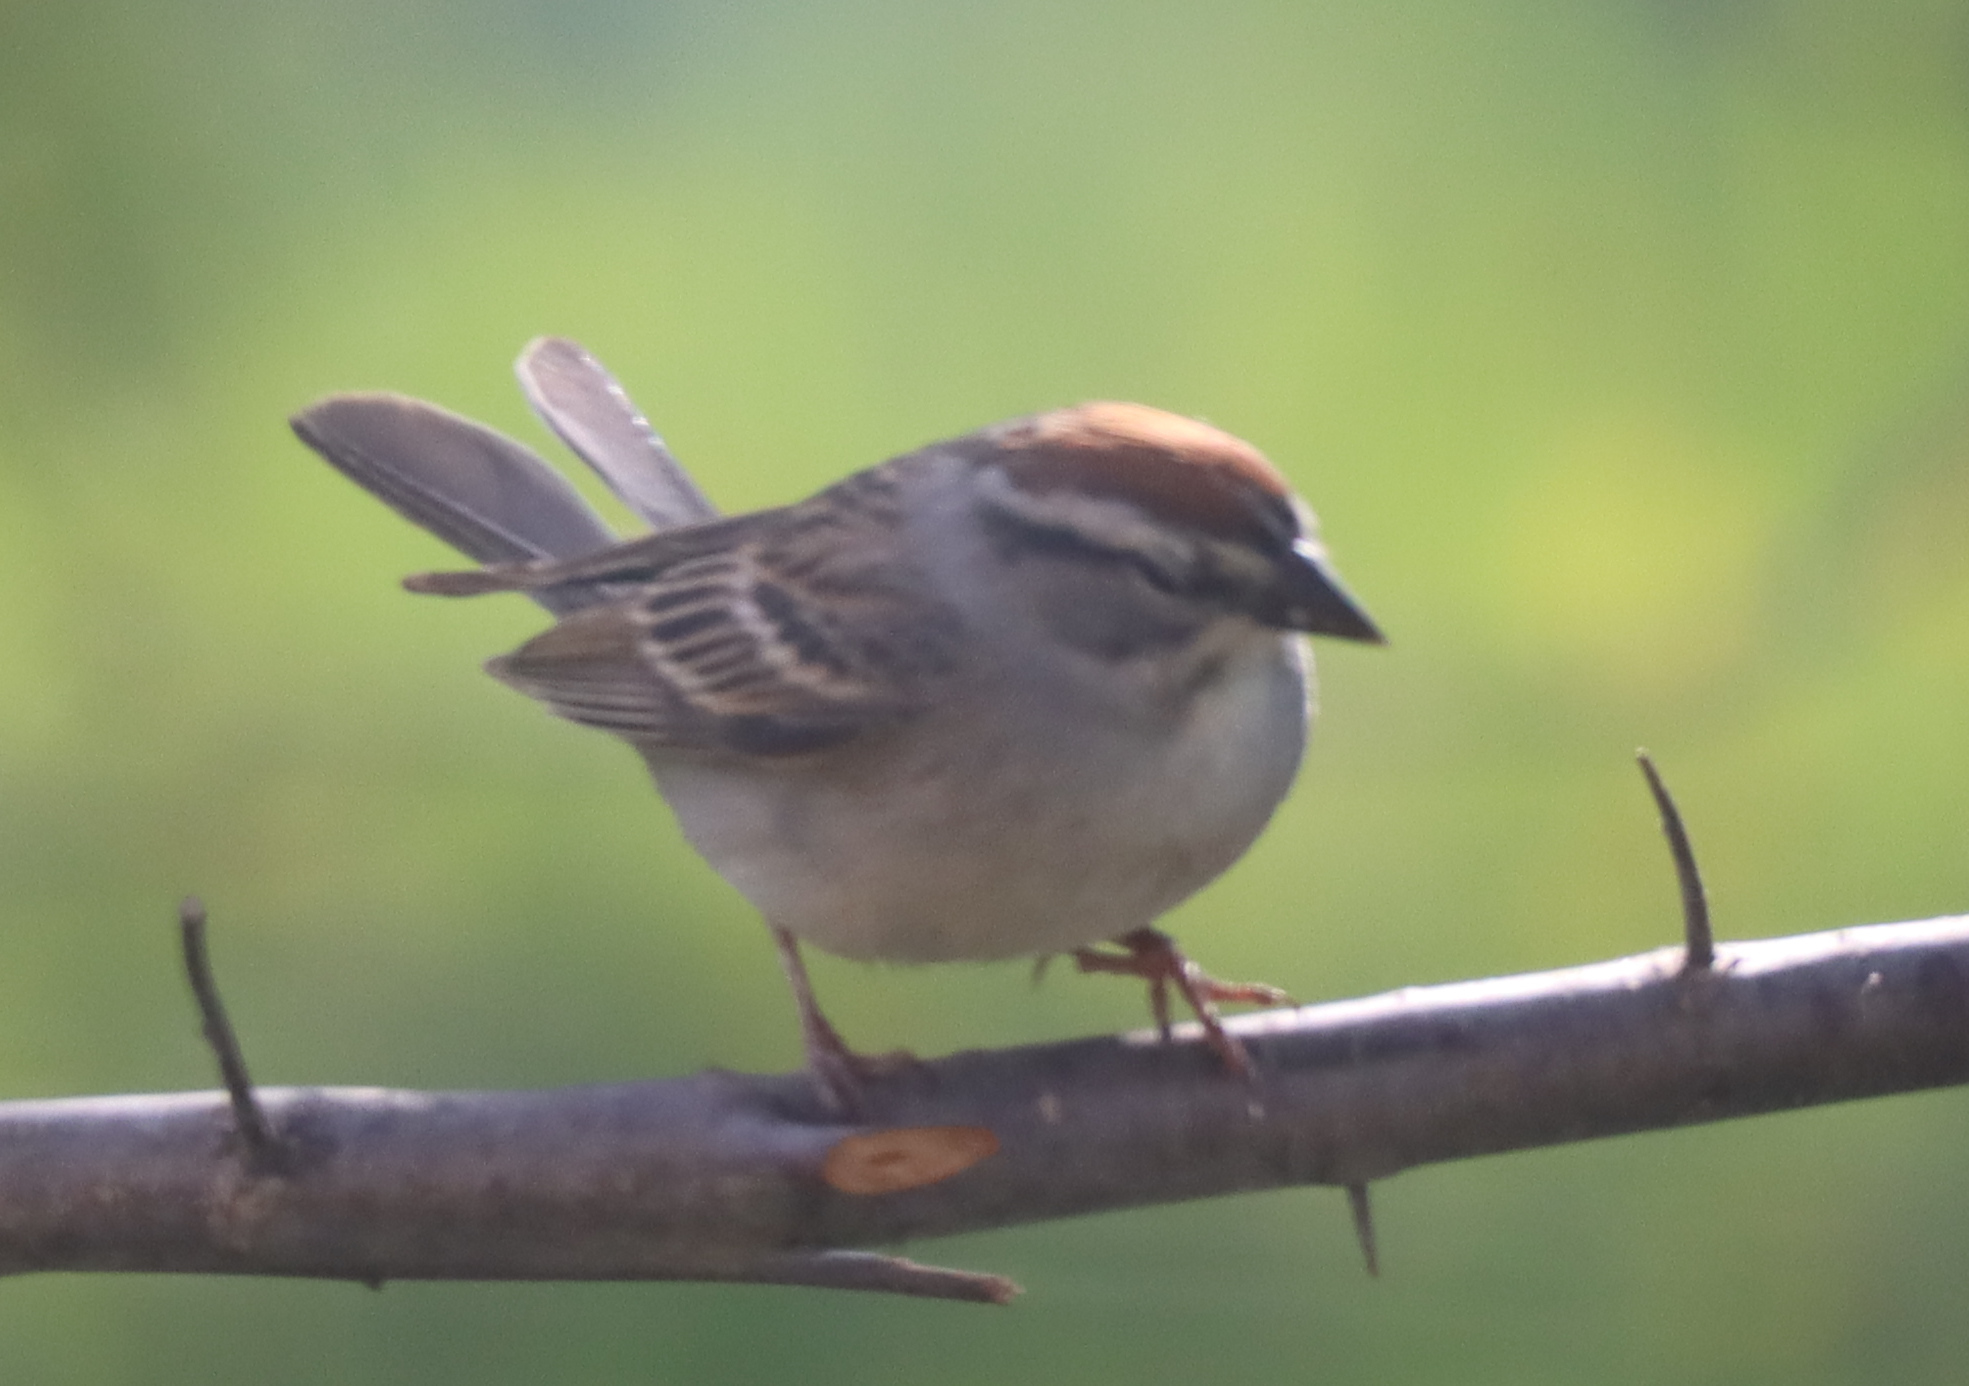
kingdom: Animalia
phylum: Chordata
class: Aves
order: Passeriformes
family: Passerellidae
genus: Spizella
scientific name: Spizella passerina
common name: Chipping sparrow
